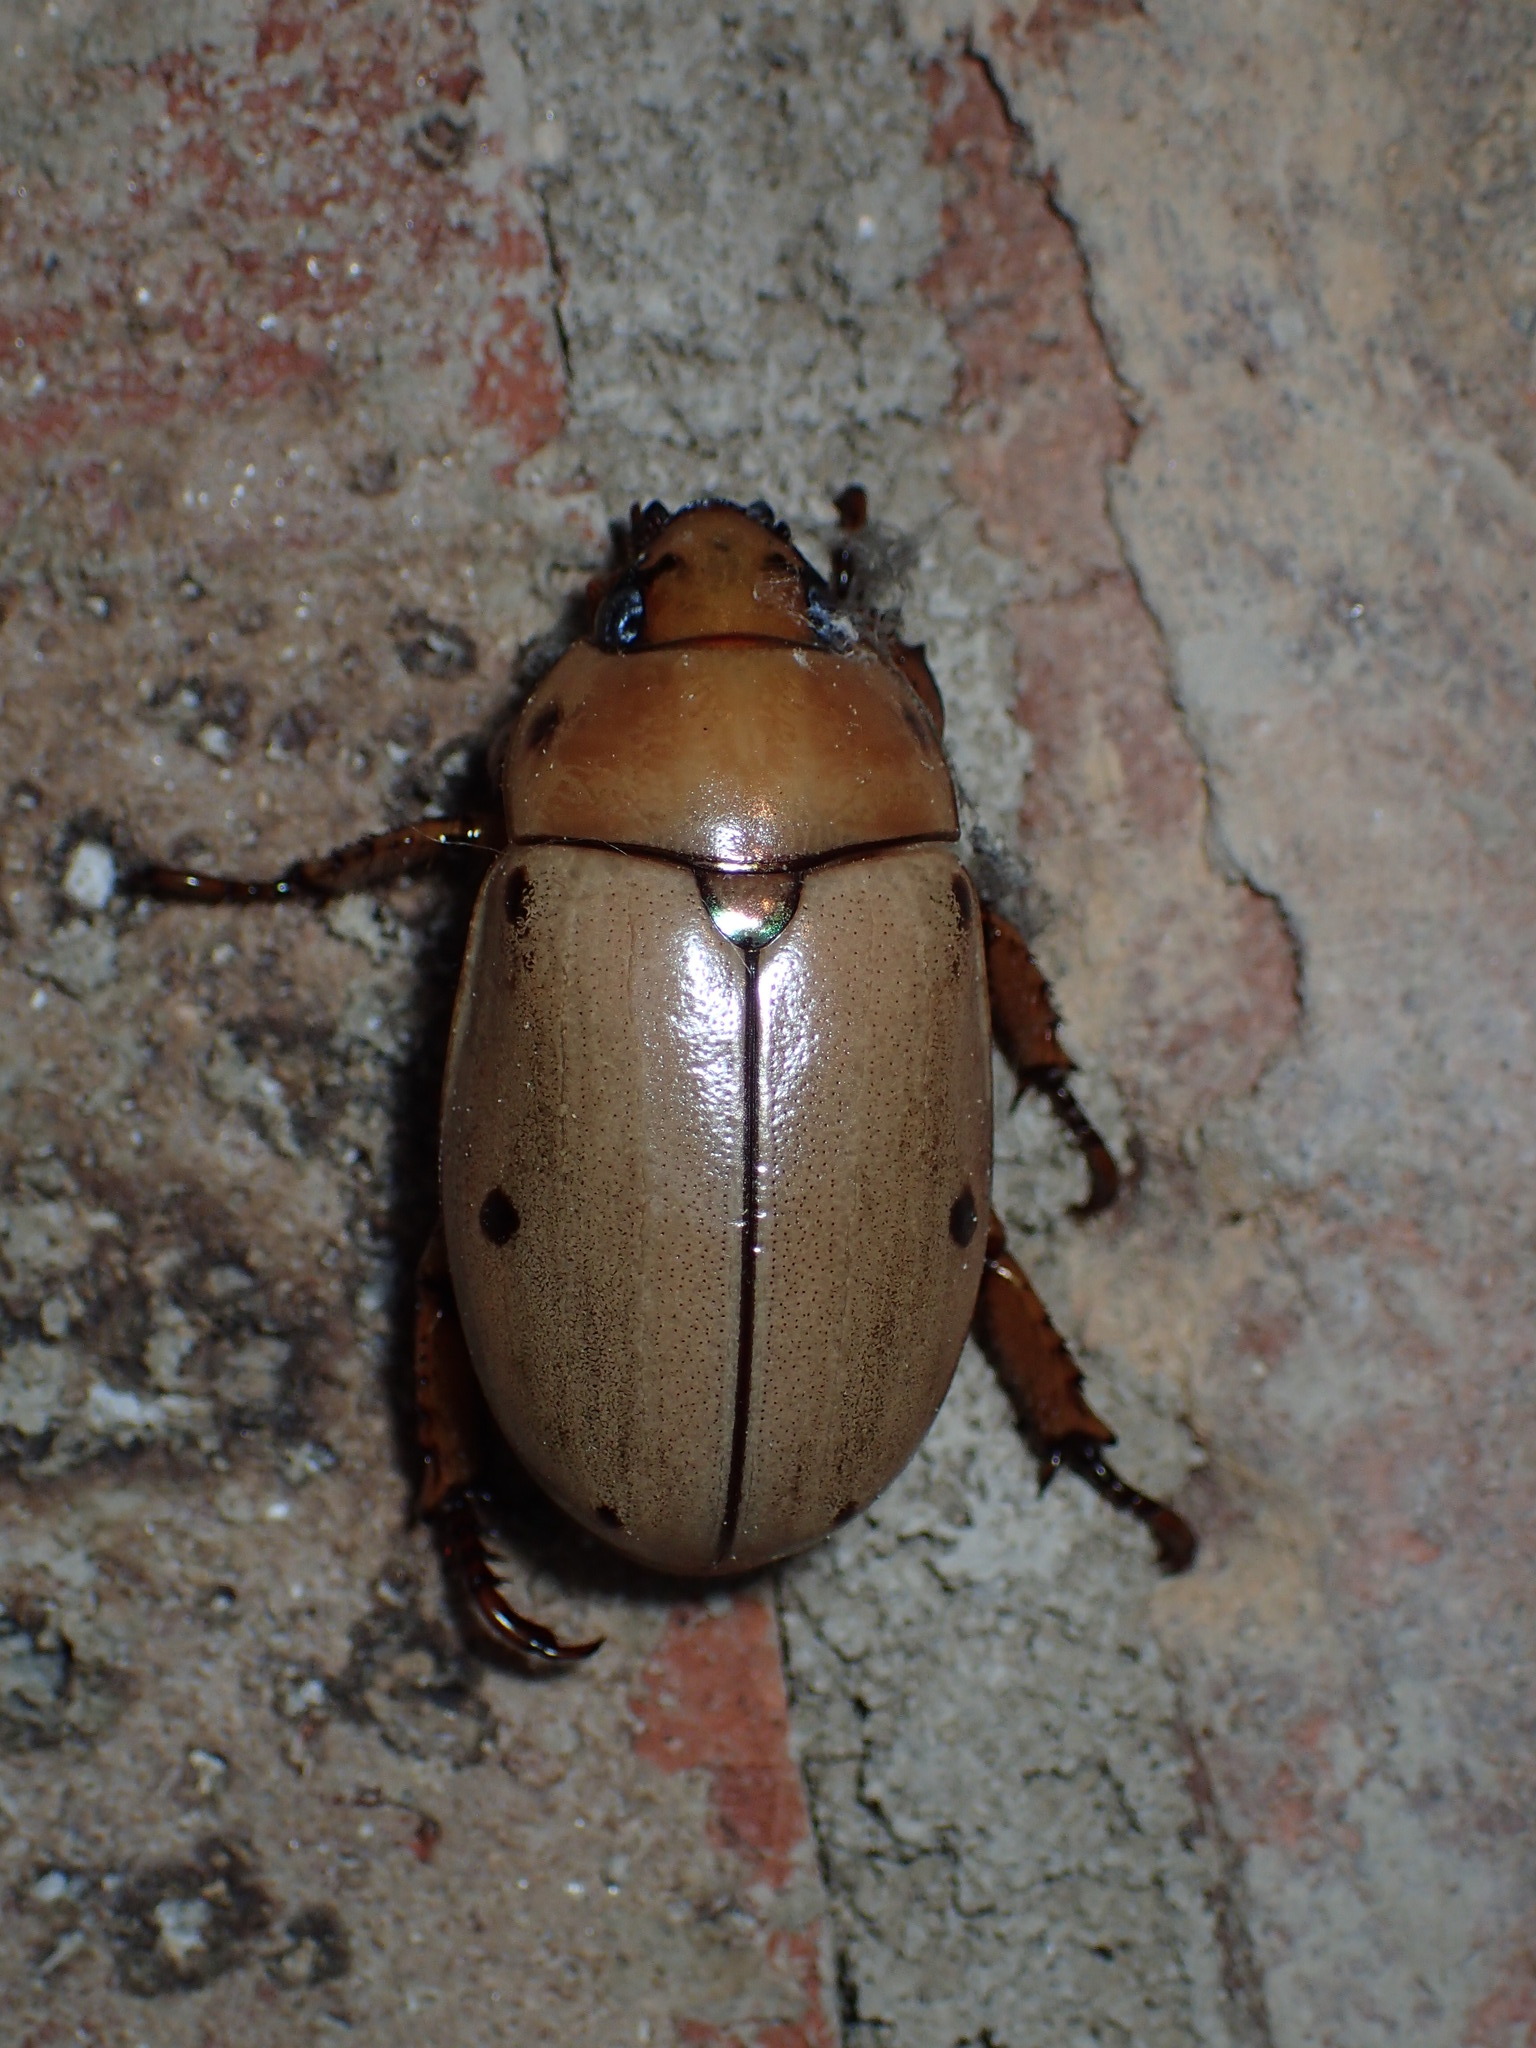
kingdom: Animalia
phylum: Arthropoda
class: Insecta
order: Coleoptera
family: Scarabaeidae
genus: Pelidnota
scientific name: Pelidnota punctata
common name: Grapevine beetle
